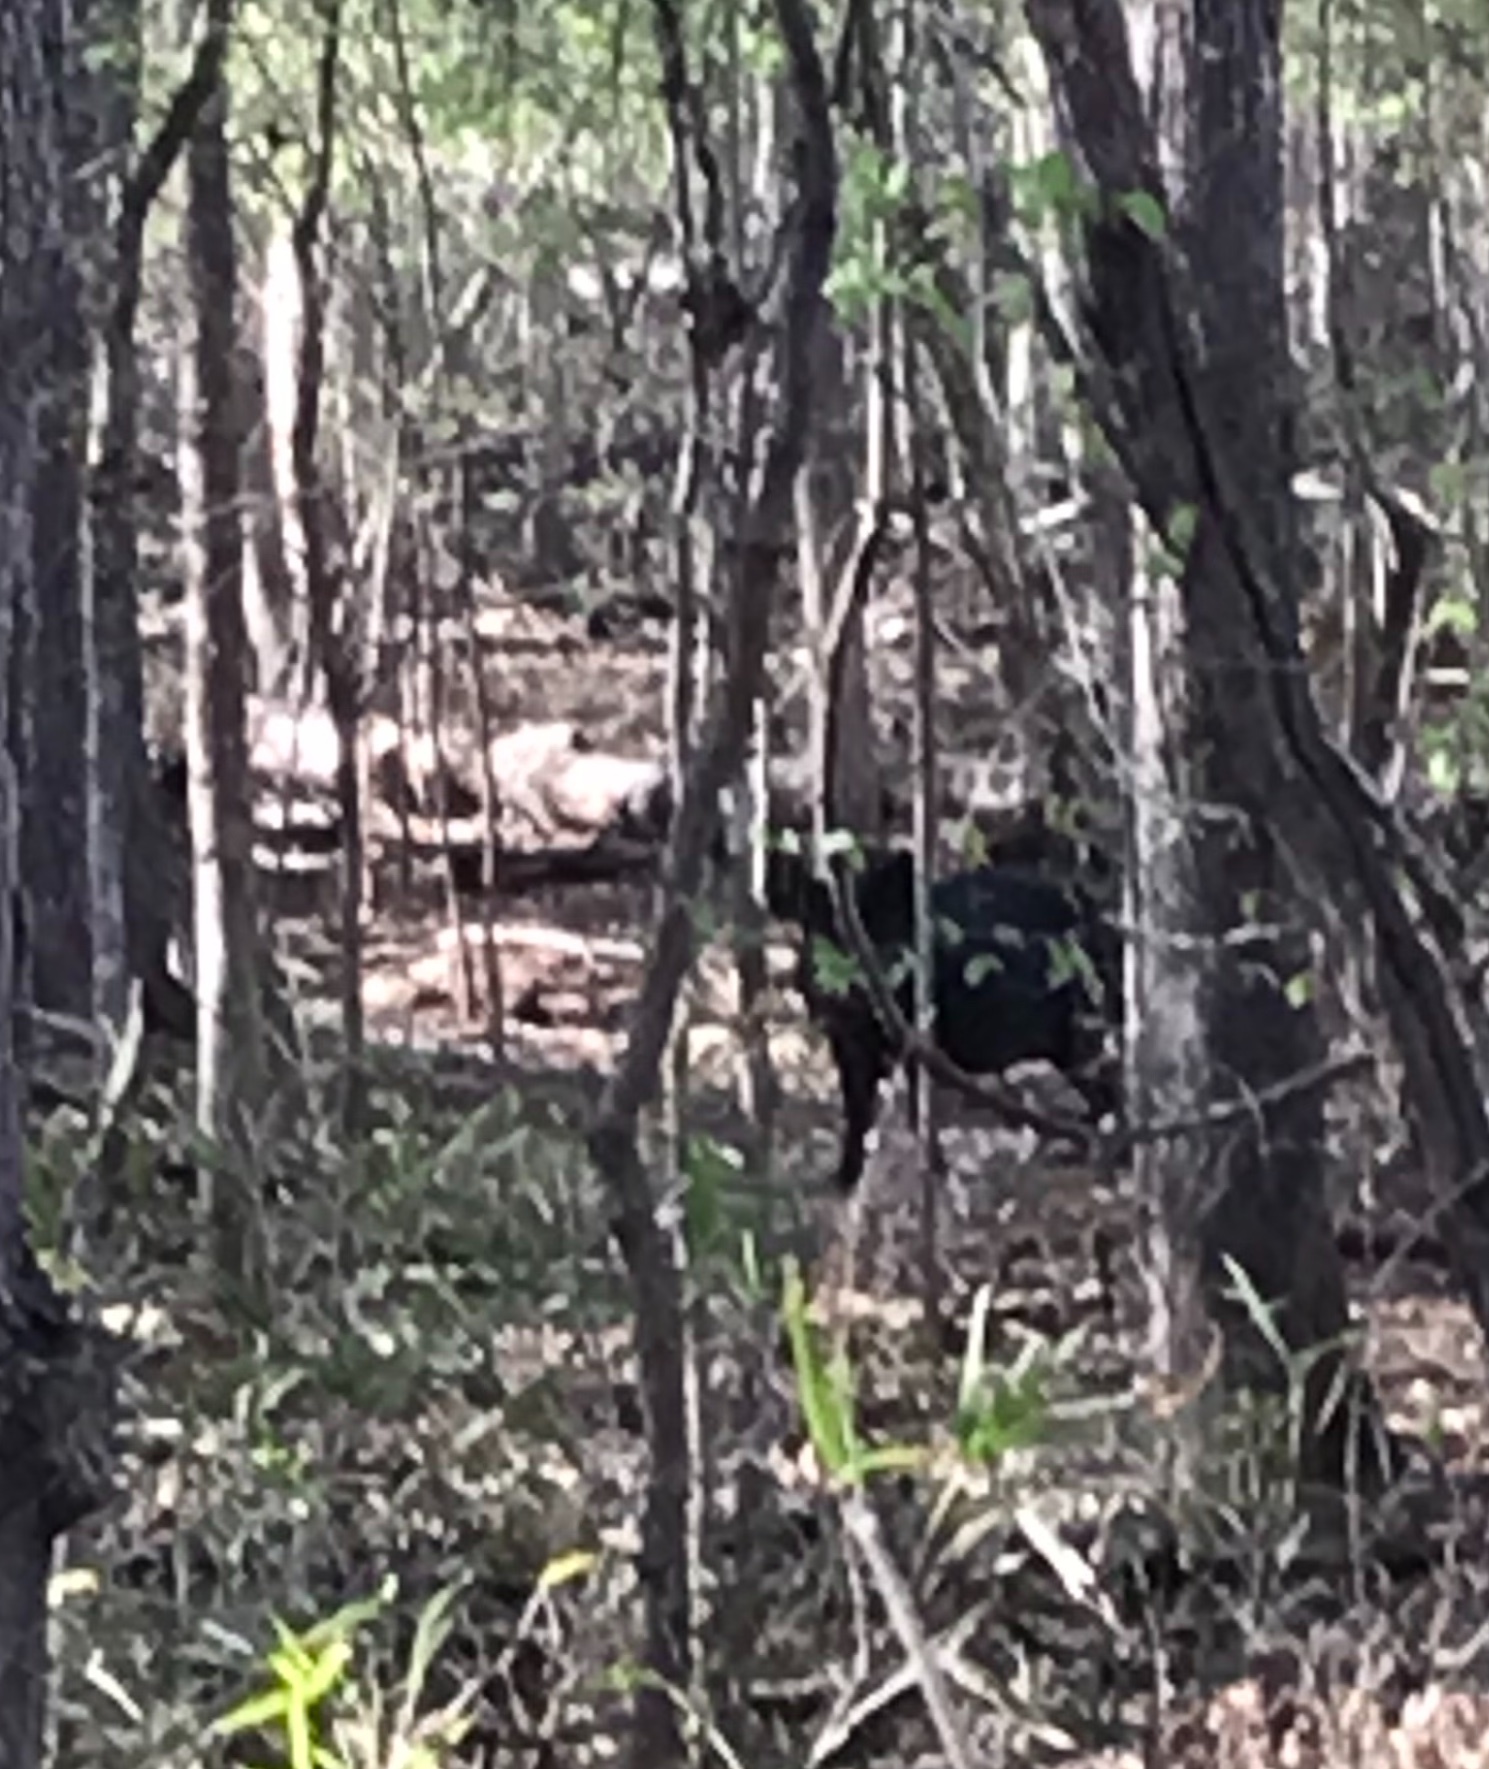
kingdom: Animalia
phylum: Chordata
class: Mammalia
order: Artiodactyla
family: Suidae
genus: Sus
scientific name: Sus scrofa
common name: Wild boar
